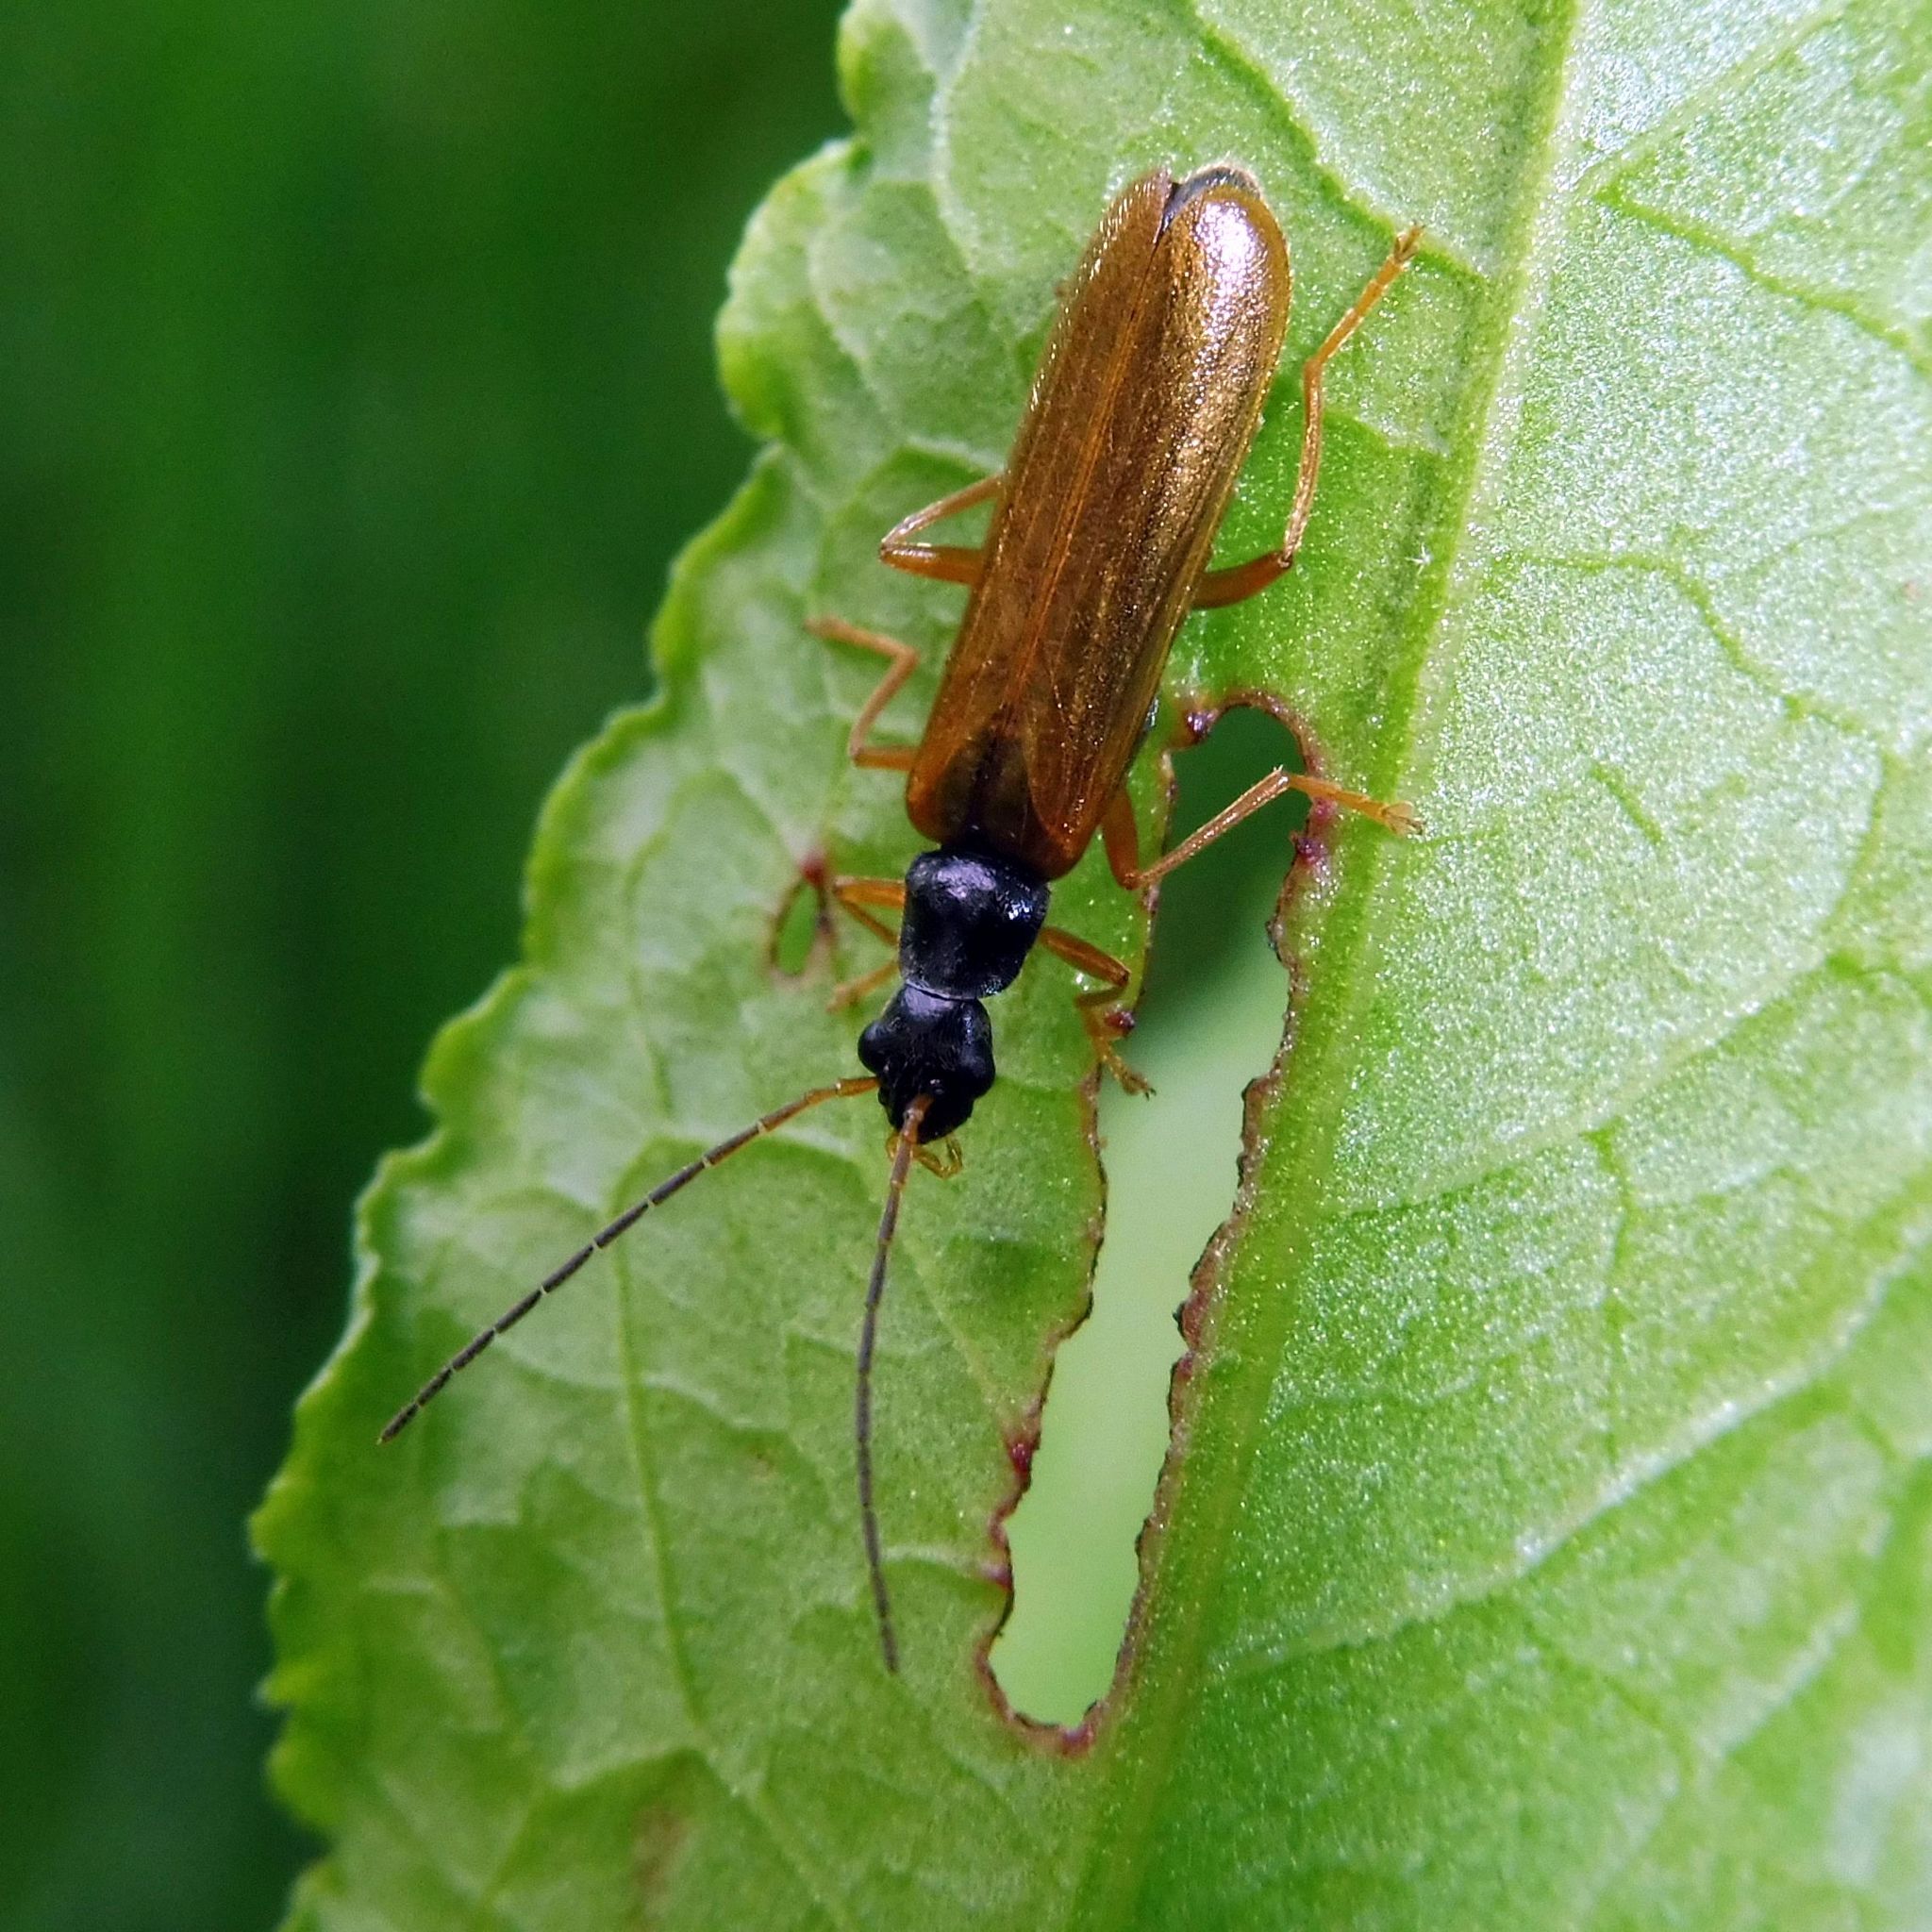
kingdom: Animalia
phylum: Arthropoda
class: Insecta
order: Coleoptera
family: Cantharidae
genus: Rhagonycha
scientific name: Rhagonycha lignosa
